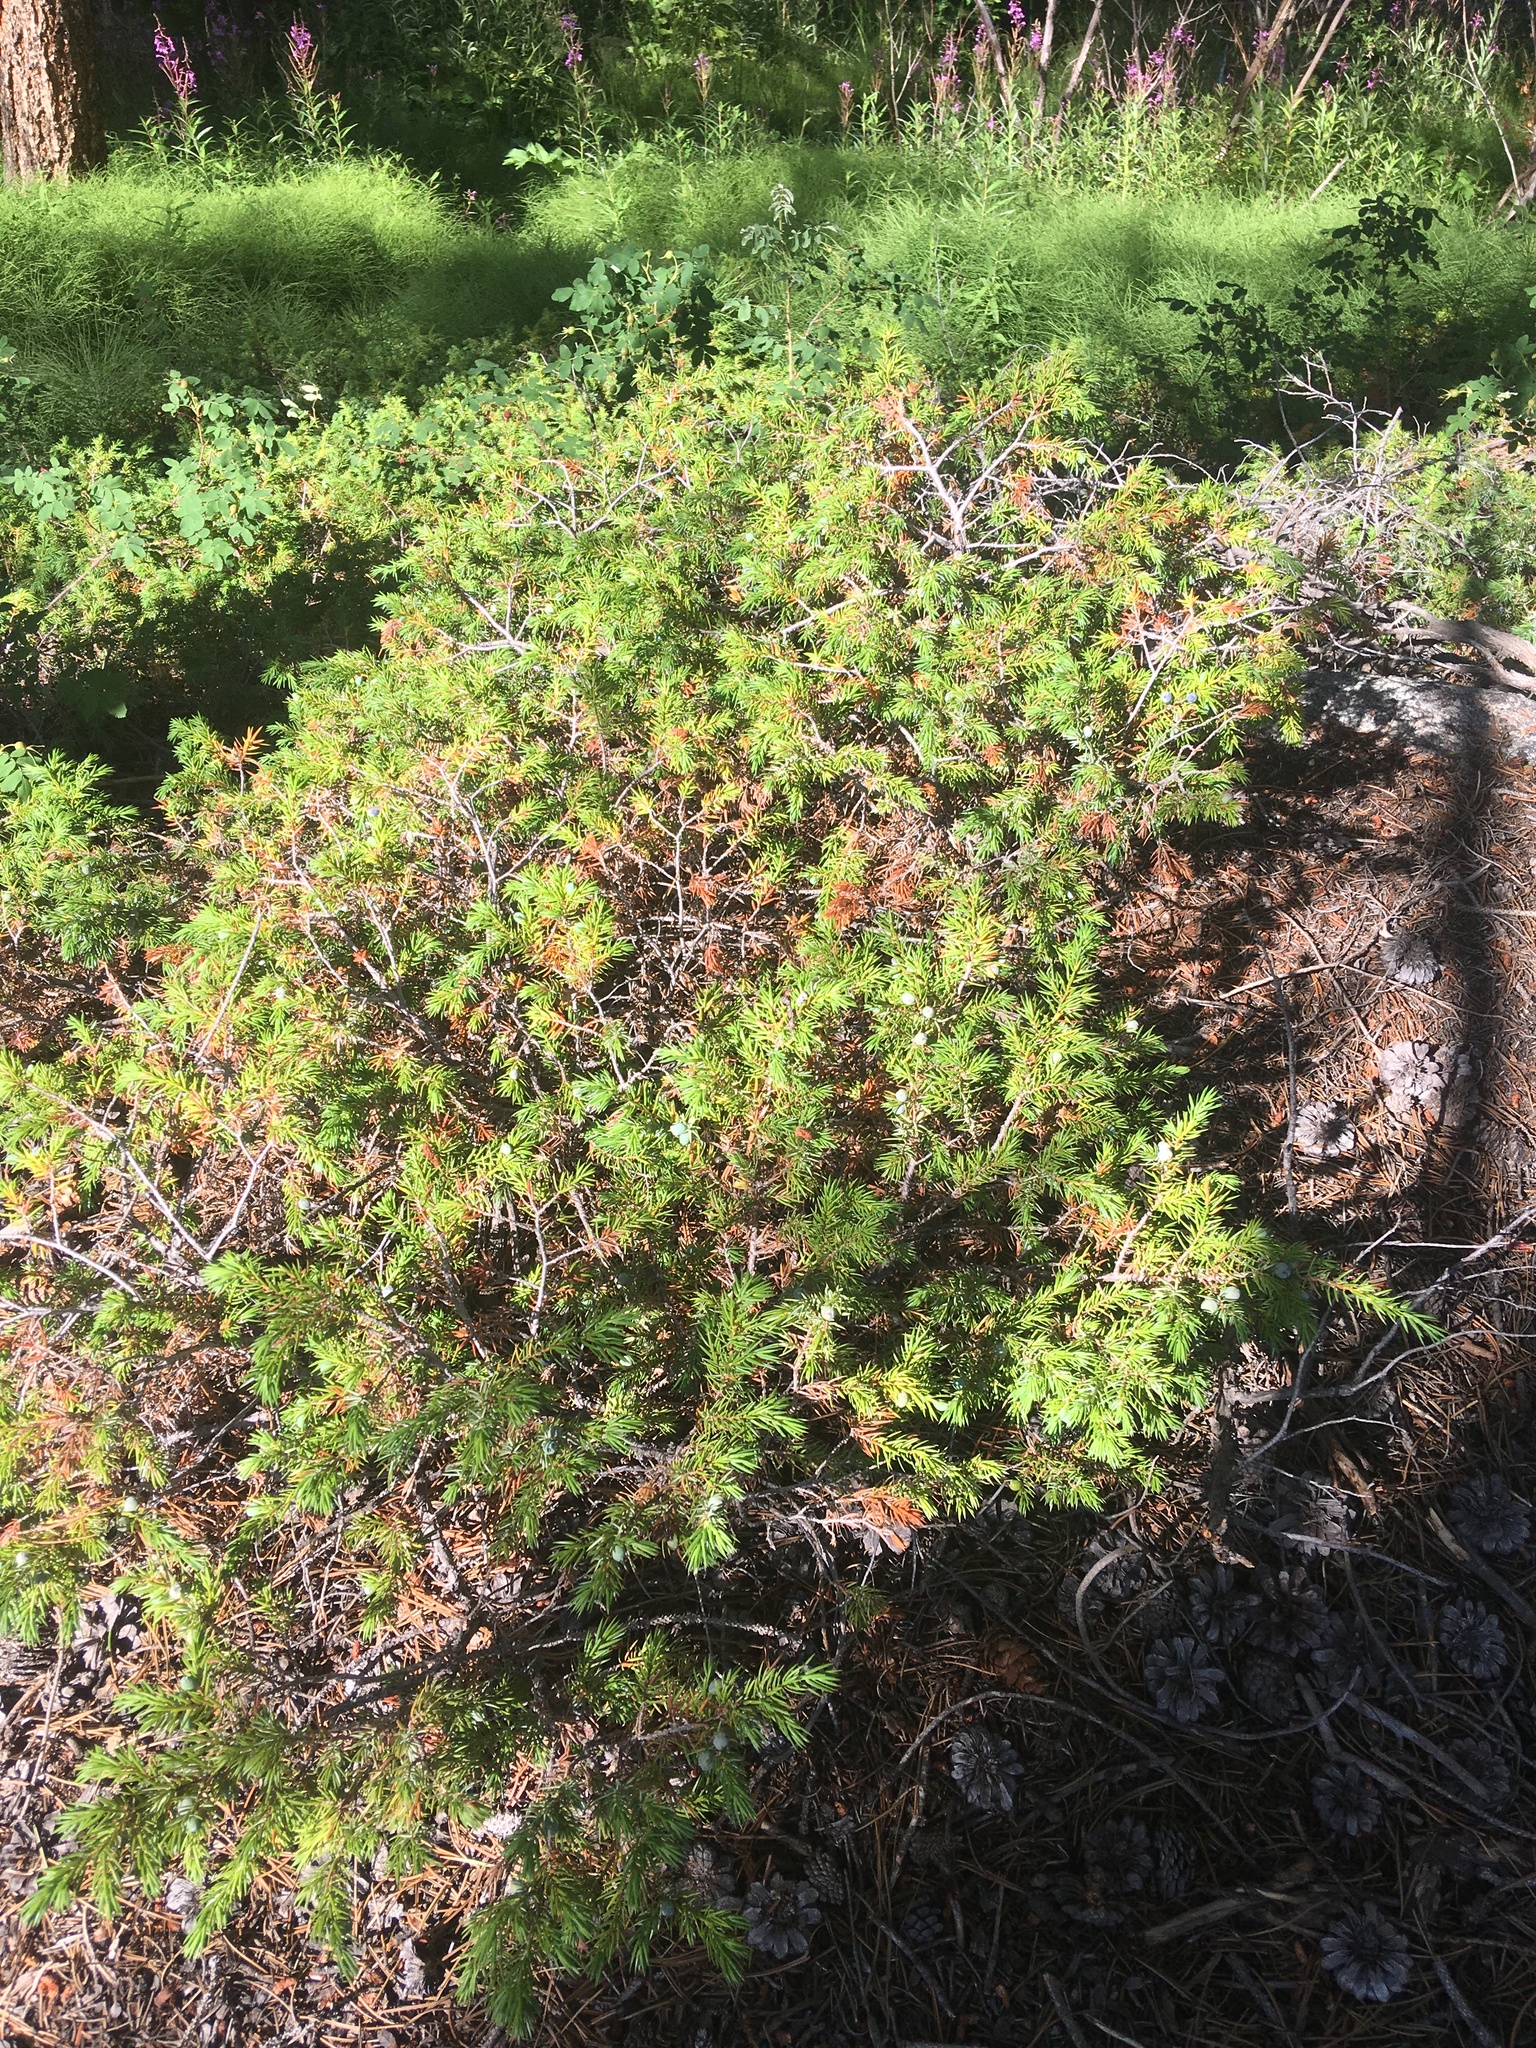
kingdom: Plantae
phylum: Tracheophyta
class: Pinopsida
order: Pinales
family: Cupressaceae
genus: Juniperus
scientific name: Juniperus communis
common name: Common juniper
